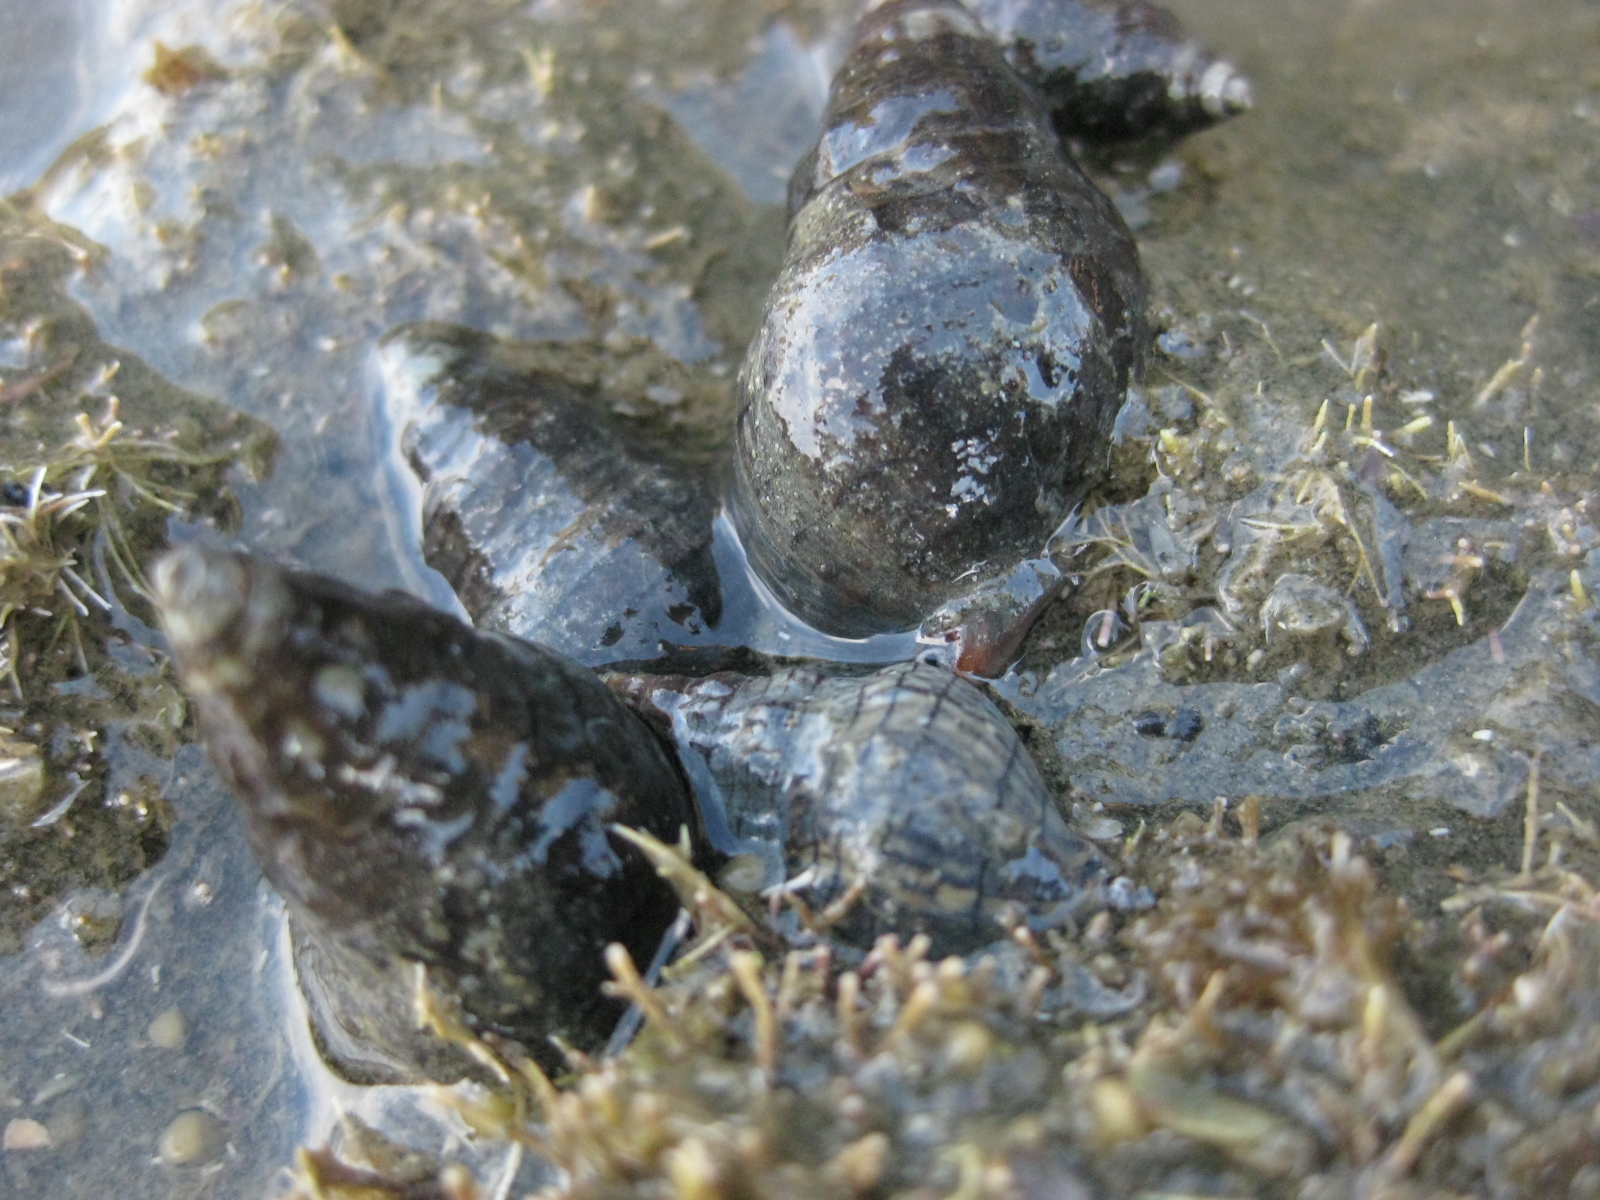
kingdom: Animalia
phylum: Mollusca
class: Gastropoda
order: Neogastropoda
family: Cominellidae
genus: Cominella
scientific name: Cominella virgata
